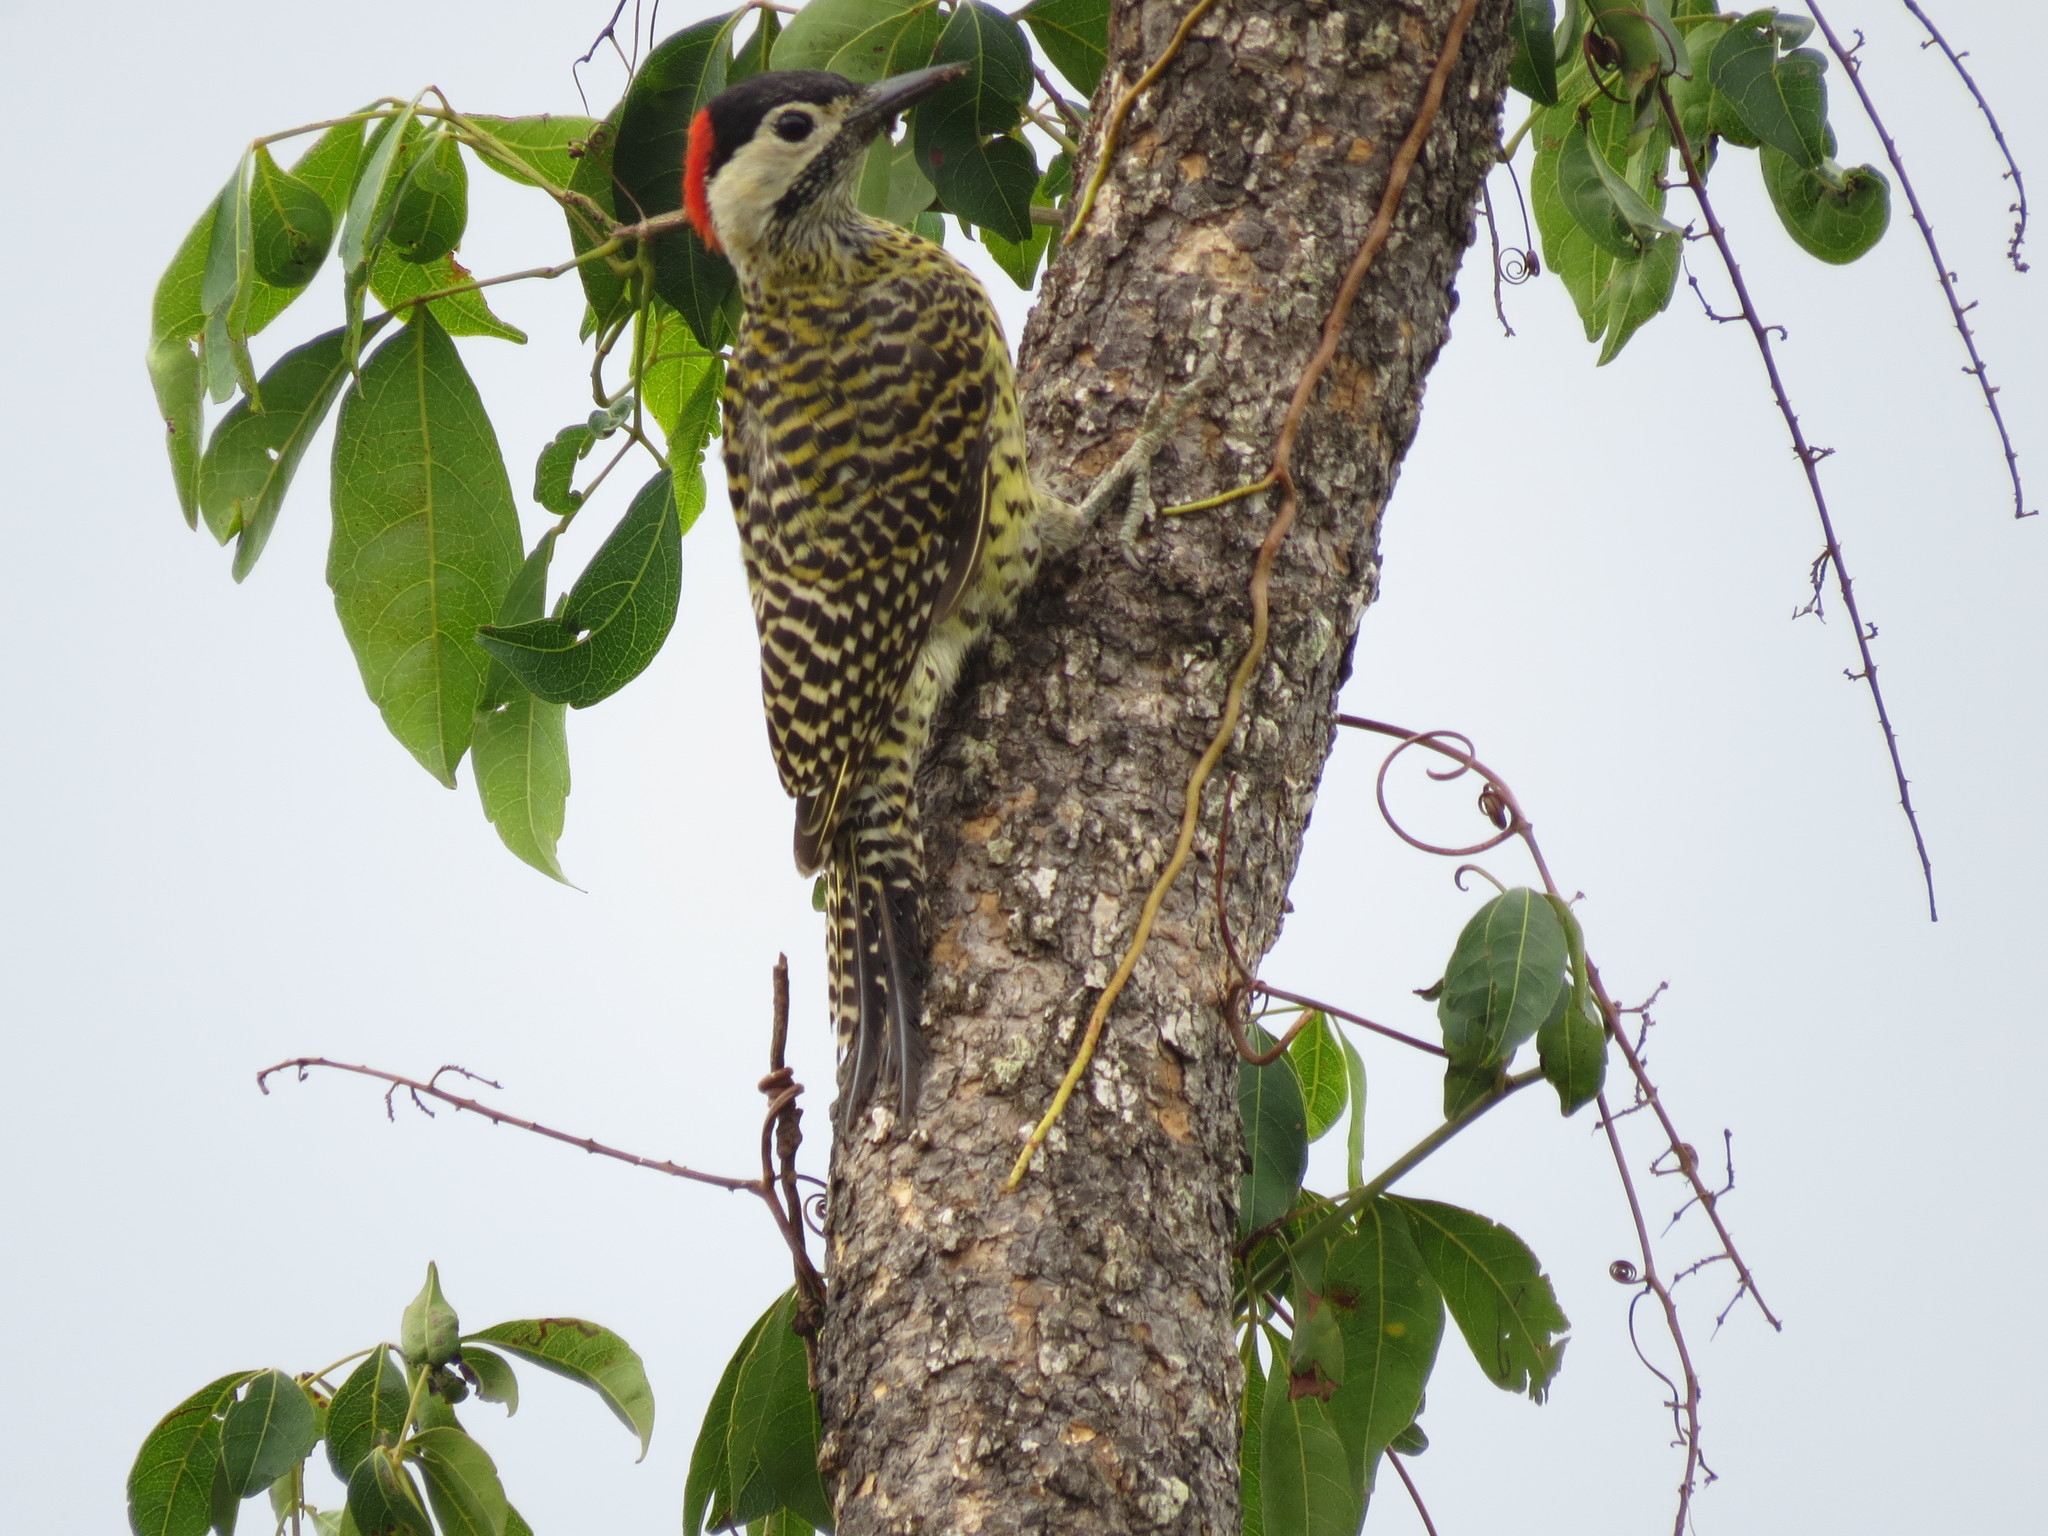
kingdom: Animalia
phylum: Chordata
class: Aves
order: Piciformes
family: Picidae
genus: Colaptes
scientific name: Colaptes melanochloros
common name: Green-barred woodpecker
